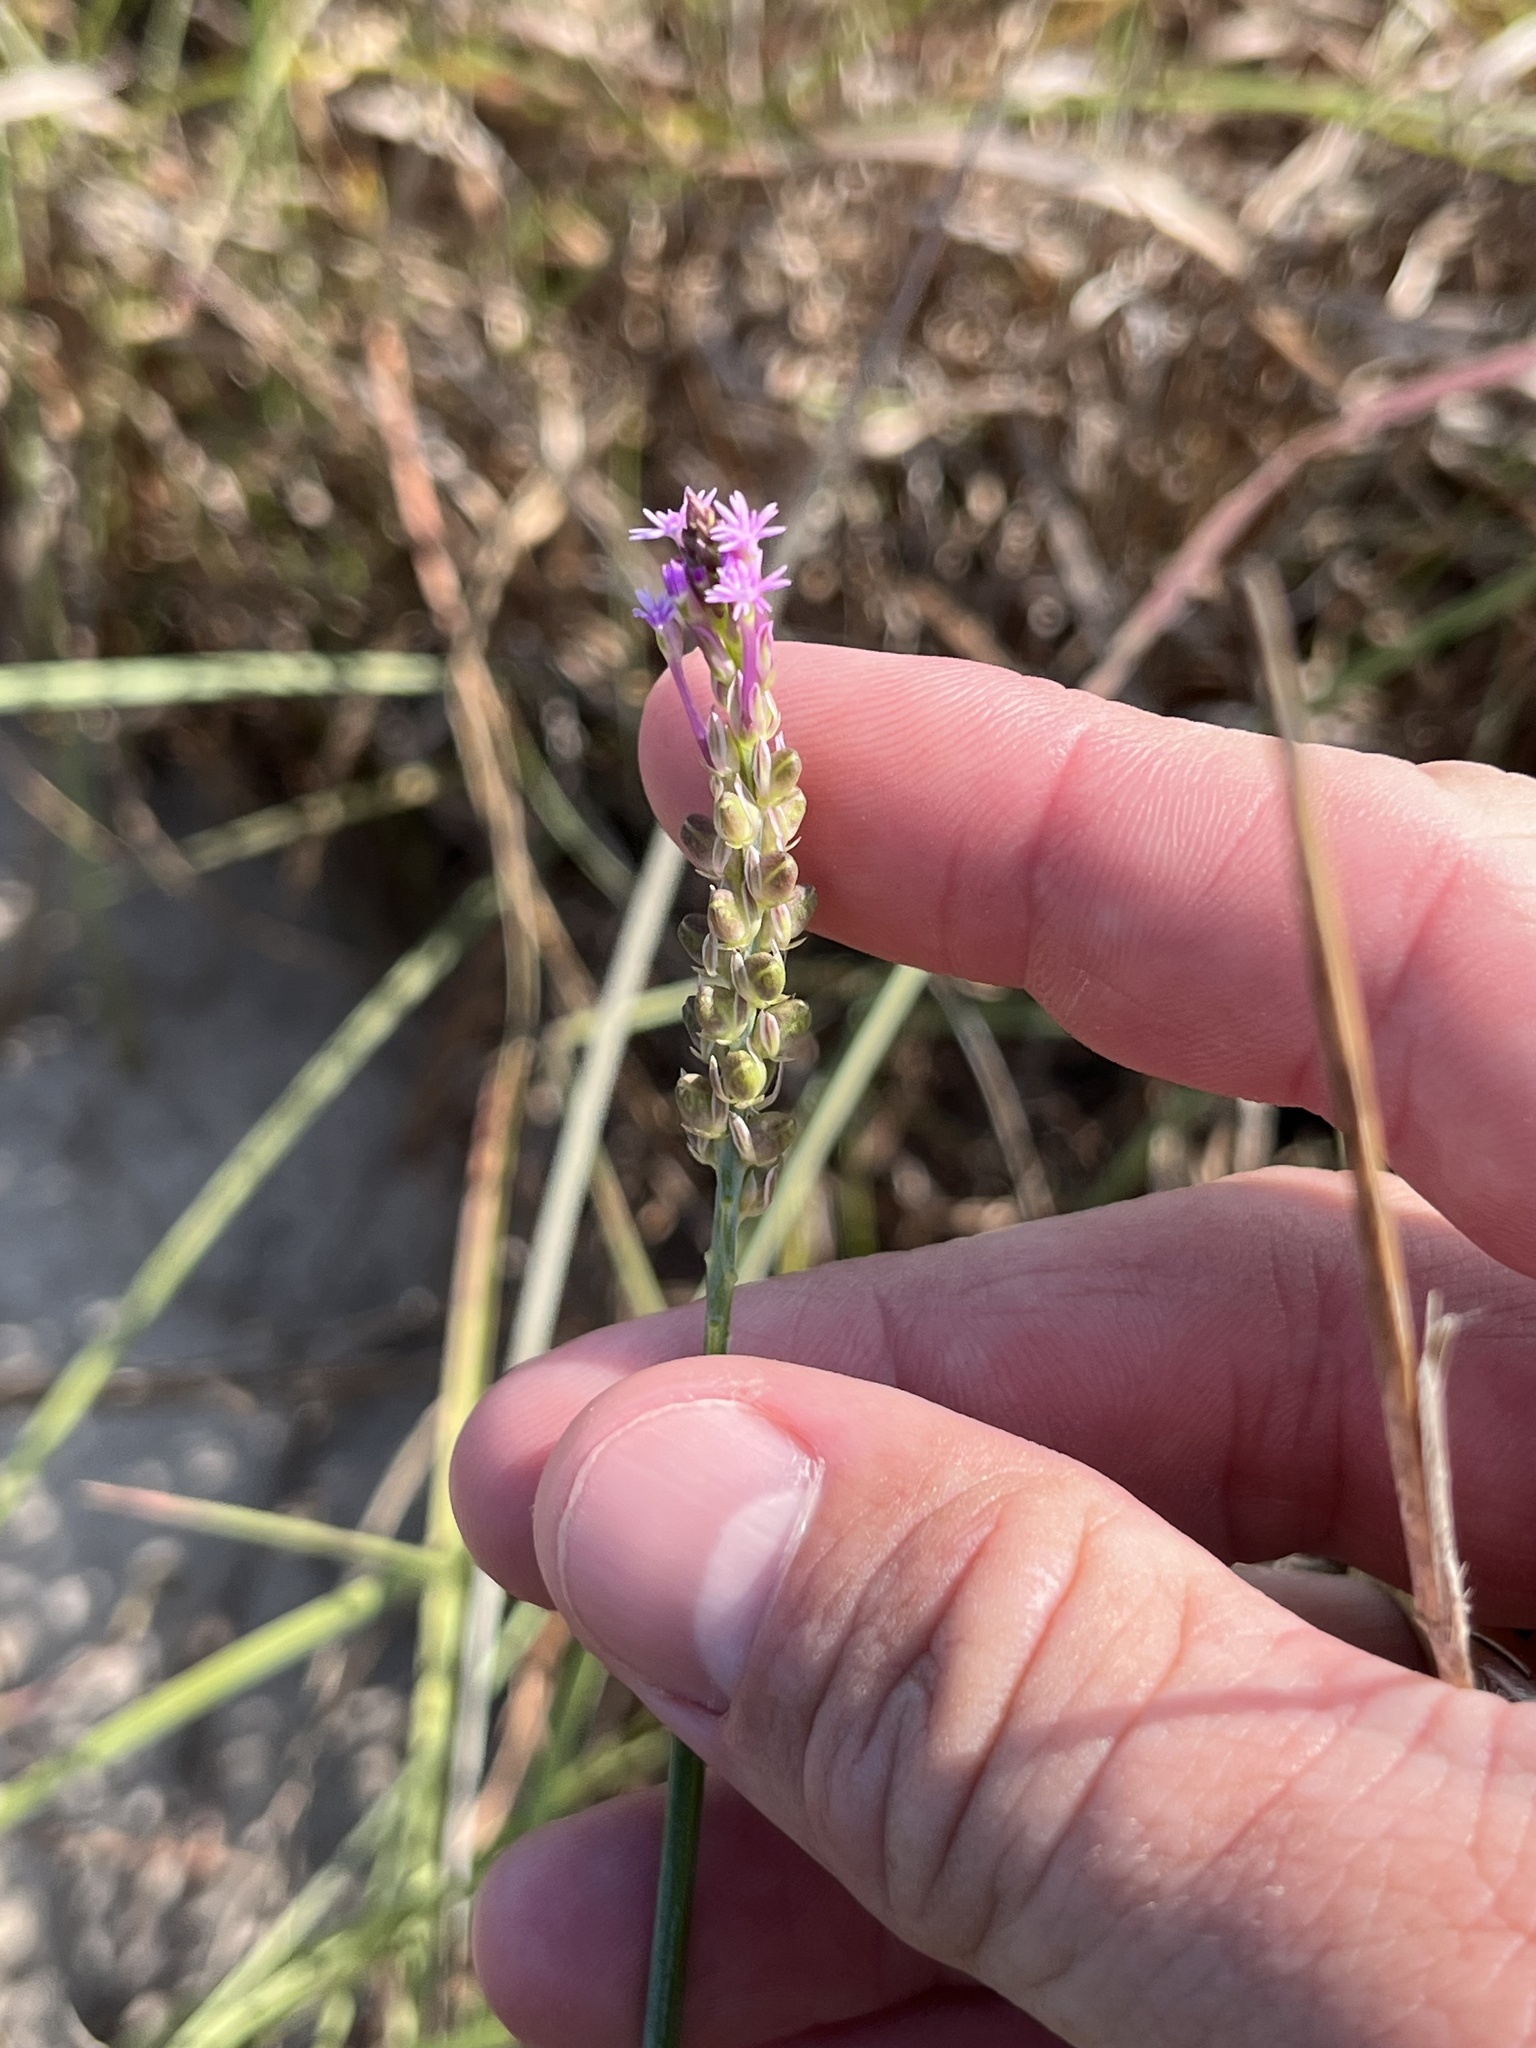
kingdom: Plantae
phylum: Tracheophyta
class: Magnoliopsida
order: Fabales
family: Polygalaceae
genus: Polygala
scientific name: Polygala incarnata
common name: Pink milkwort
